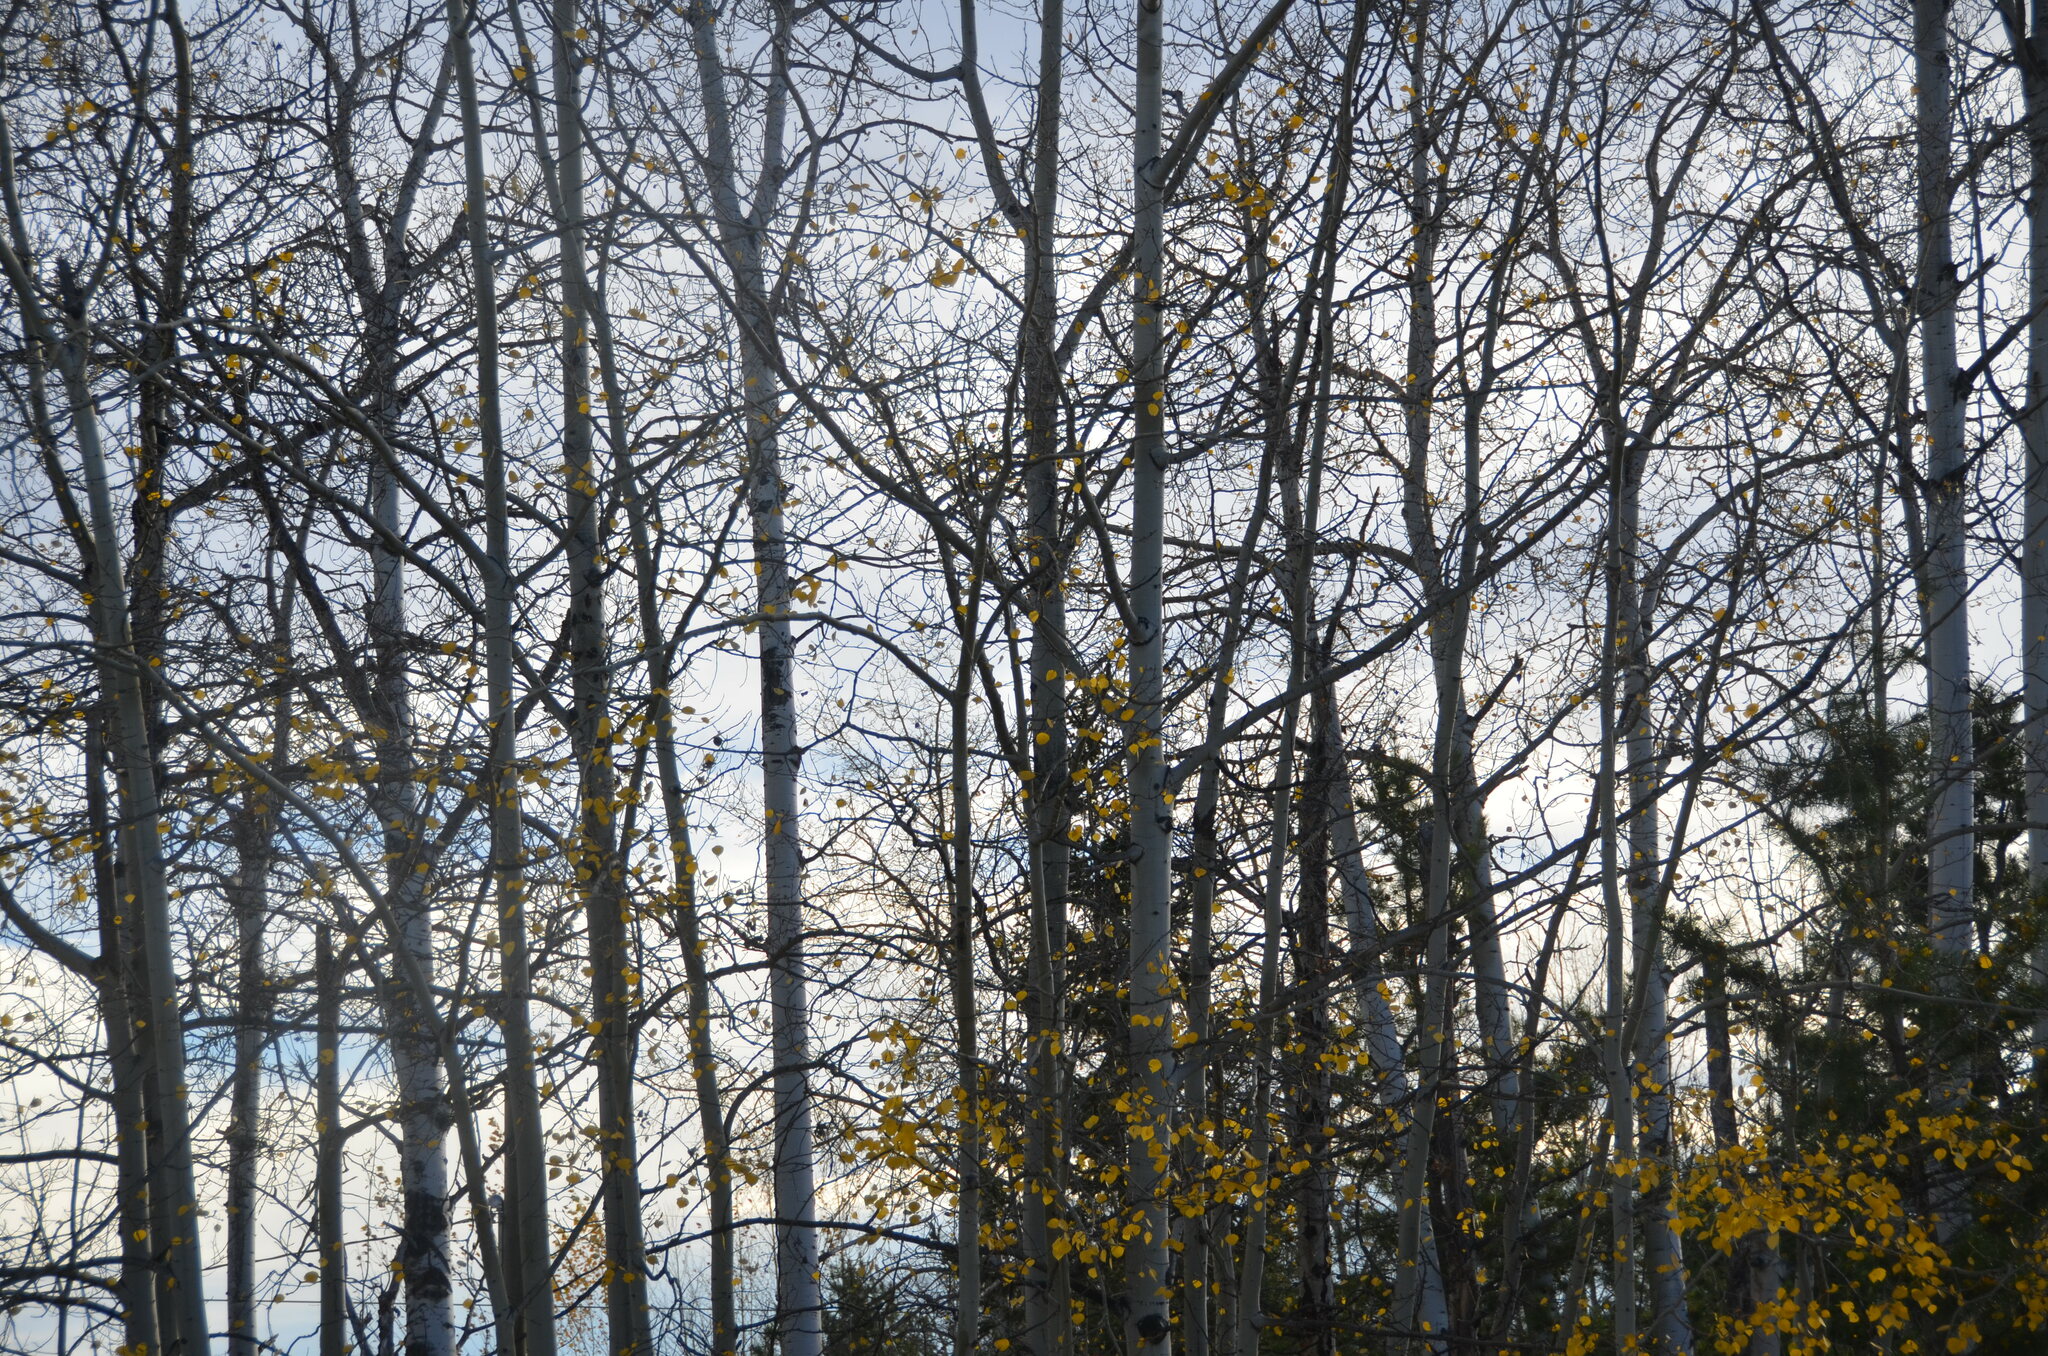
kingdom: Plantae
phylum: Tracheophyta
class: Magnoliopsida
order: Malpighiales
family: Salicaceae
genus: Populus
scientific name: Populus tremuloides
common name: Quaking aspen
